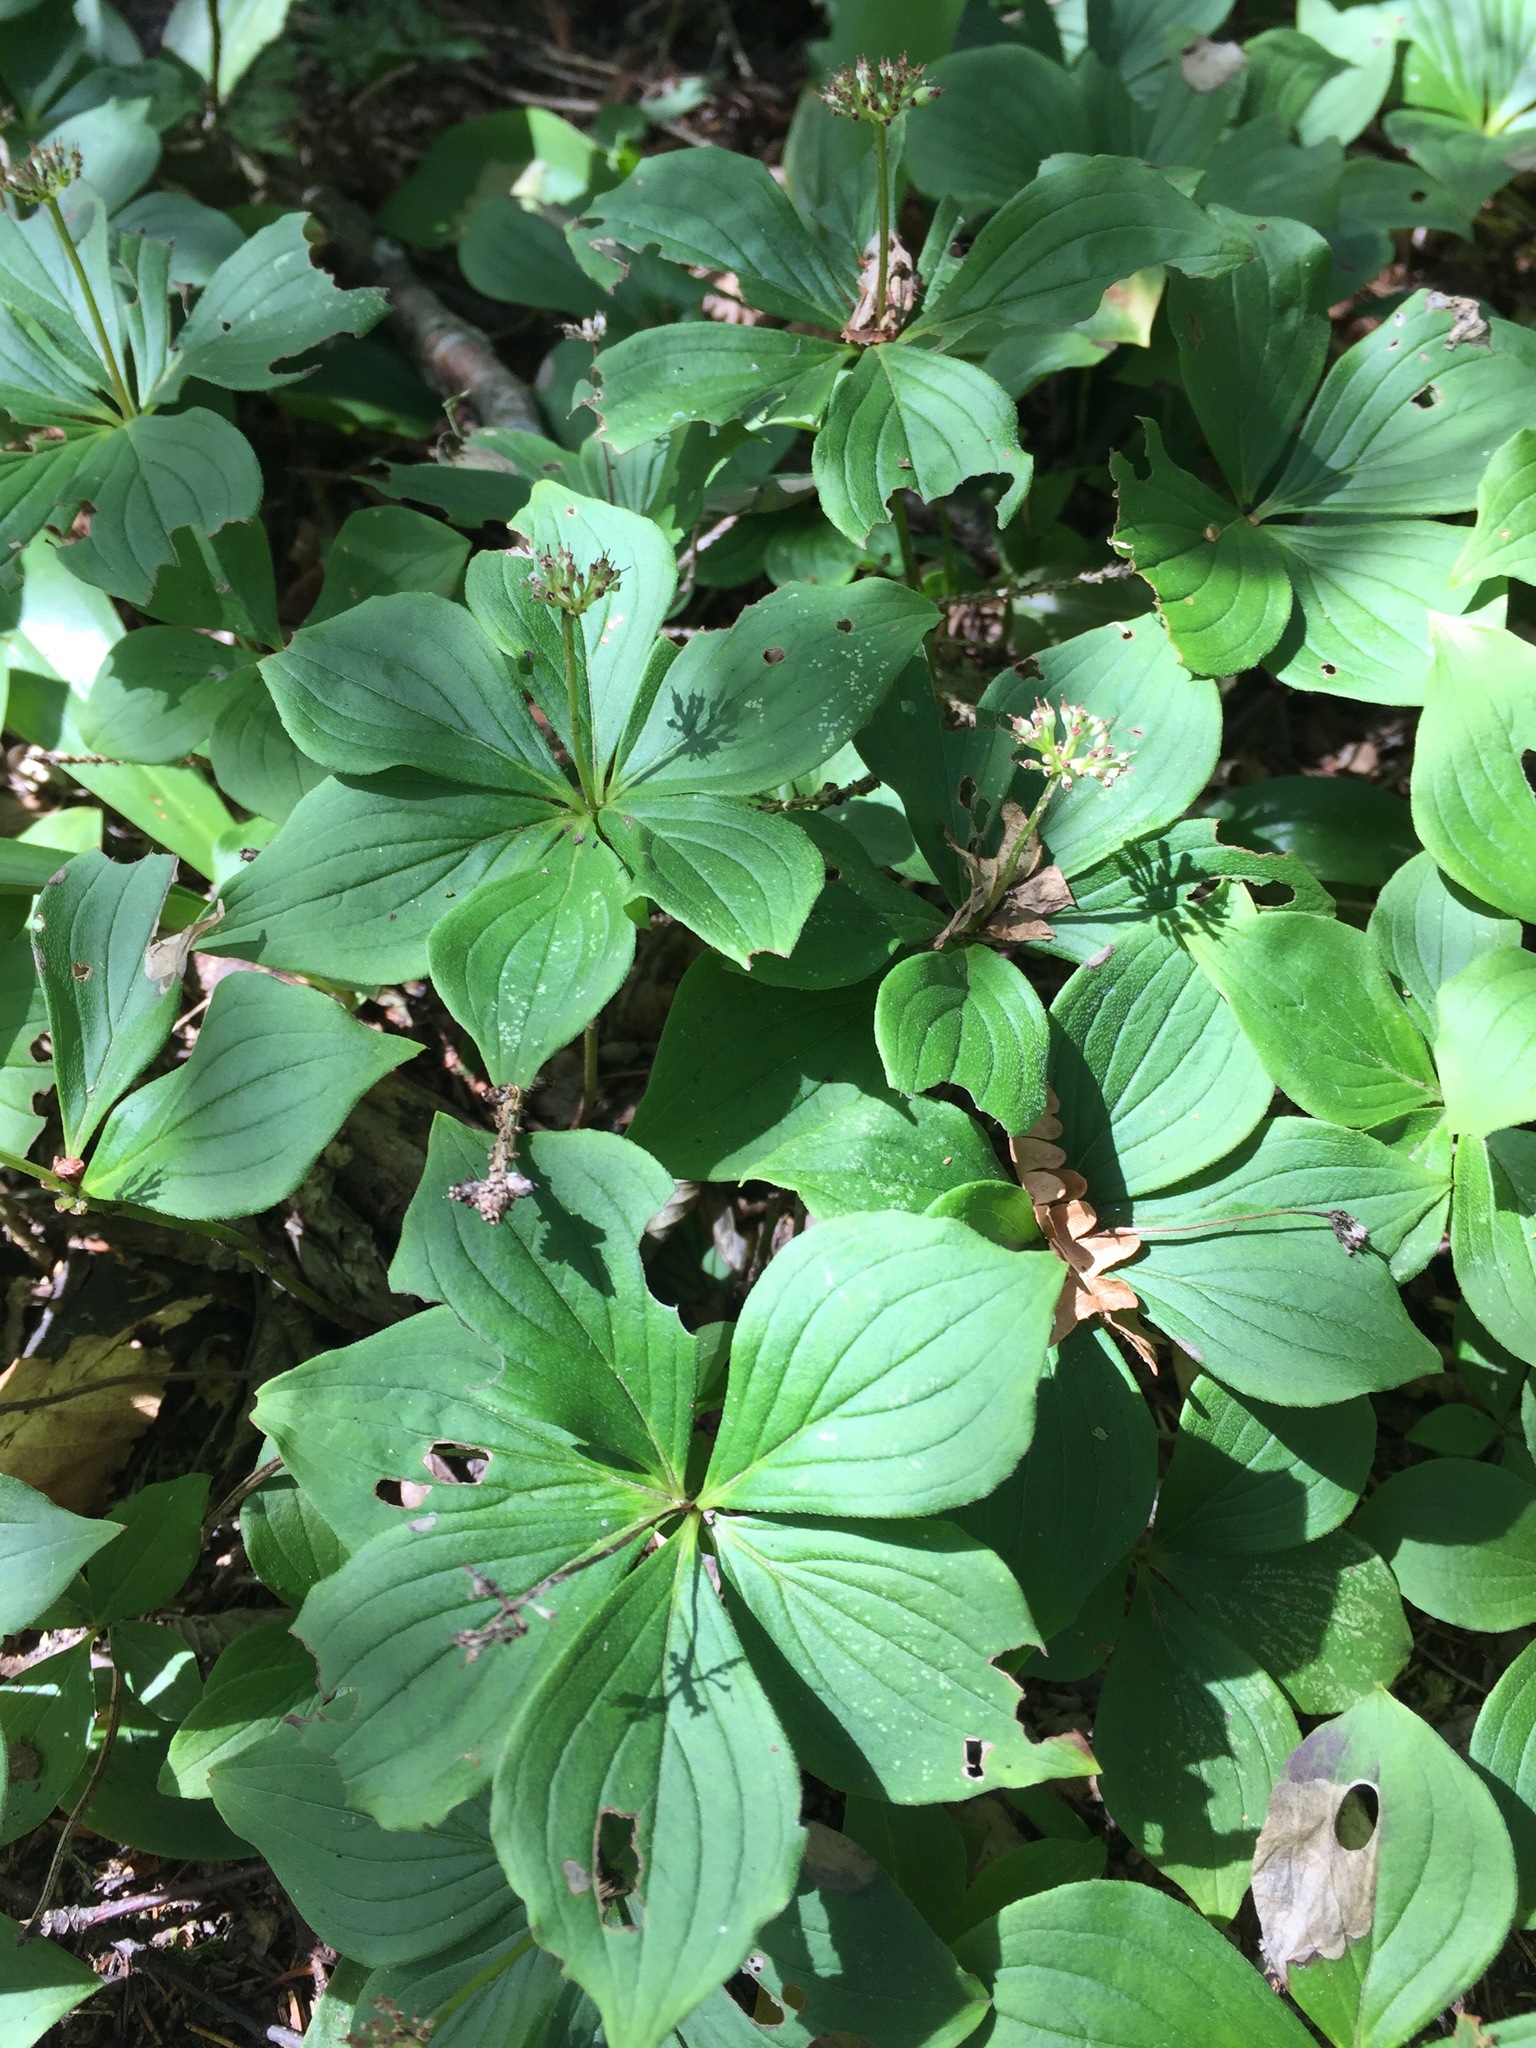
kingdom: Plantae
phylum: Tracheophyta
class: Magnoliopsida
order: Cornales
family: Cornaceae
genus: Cornus
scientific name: Cornus canadensis
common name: Creeping dogwood
